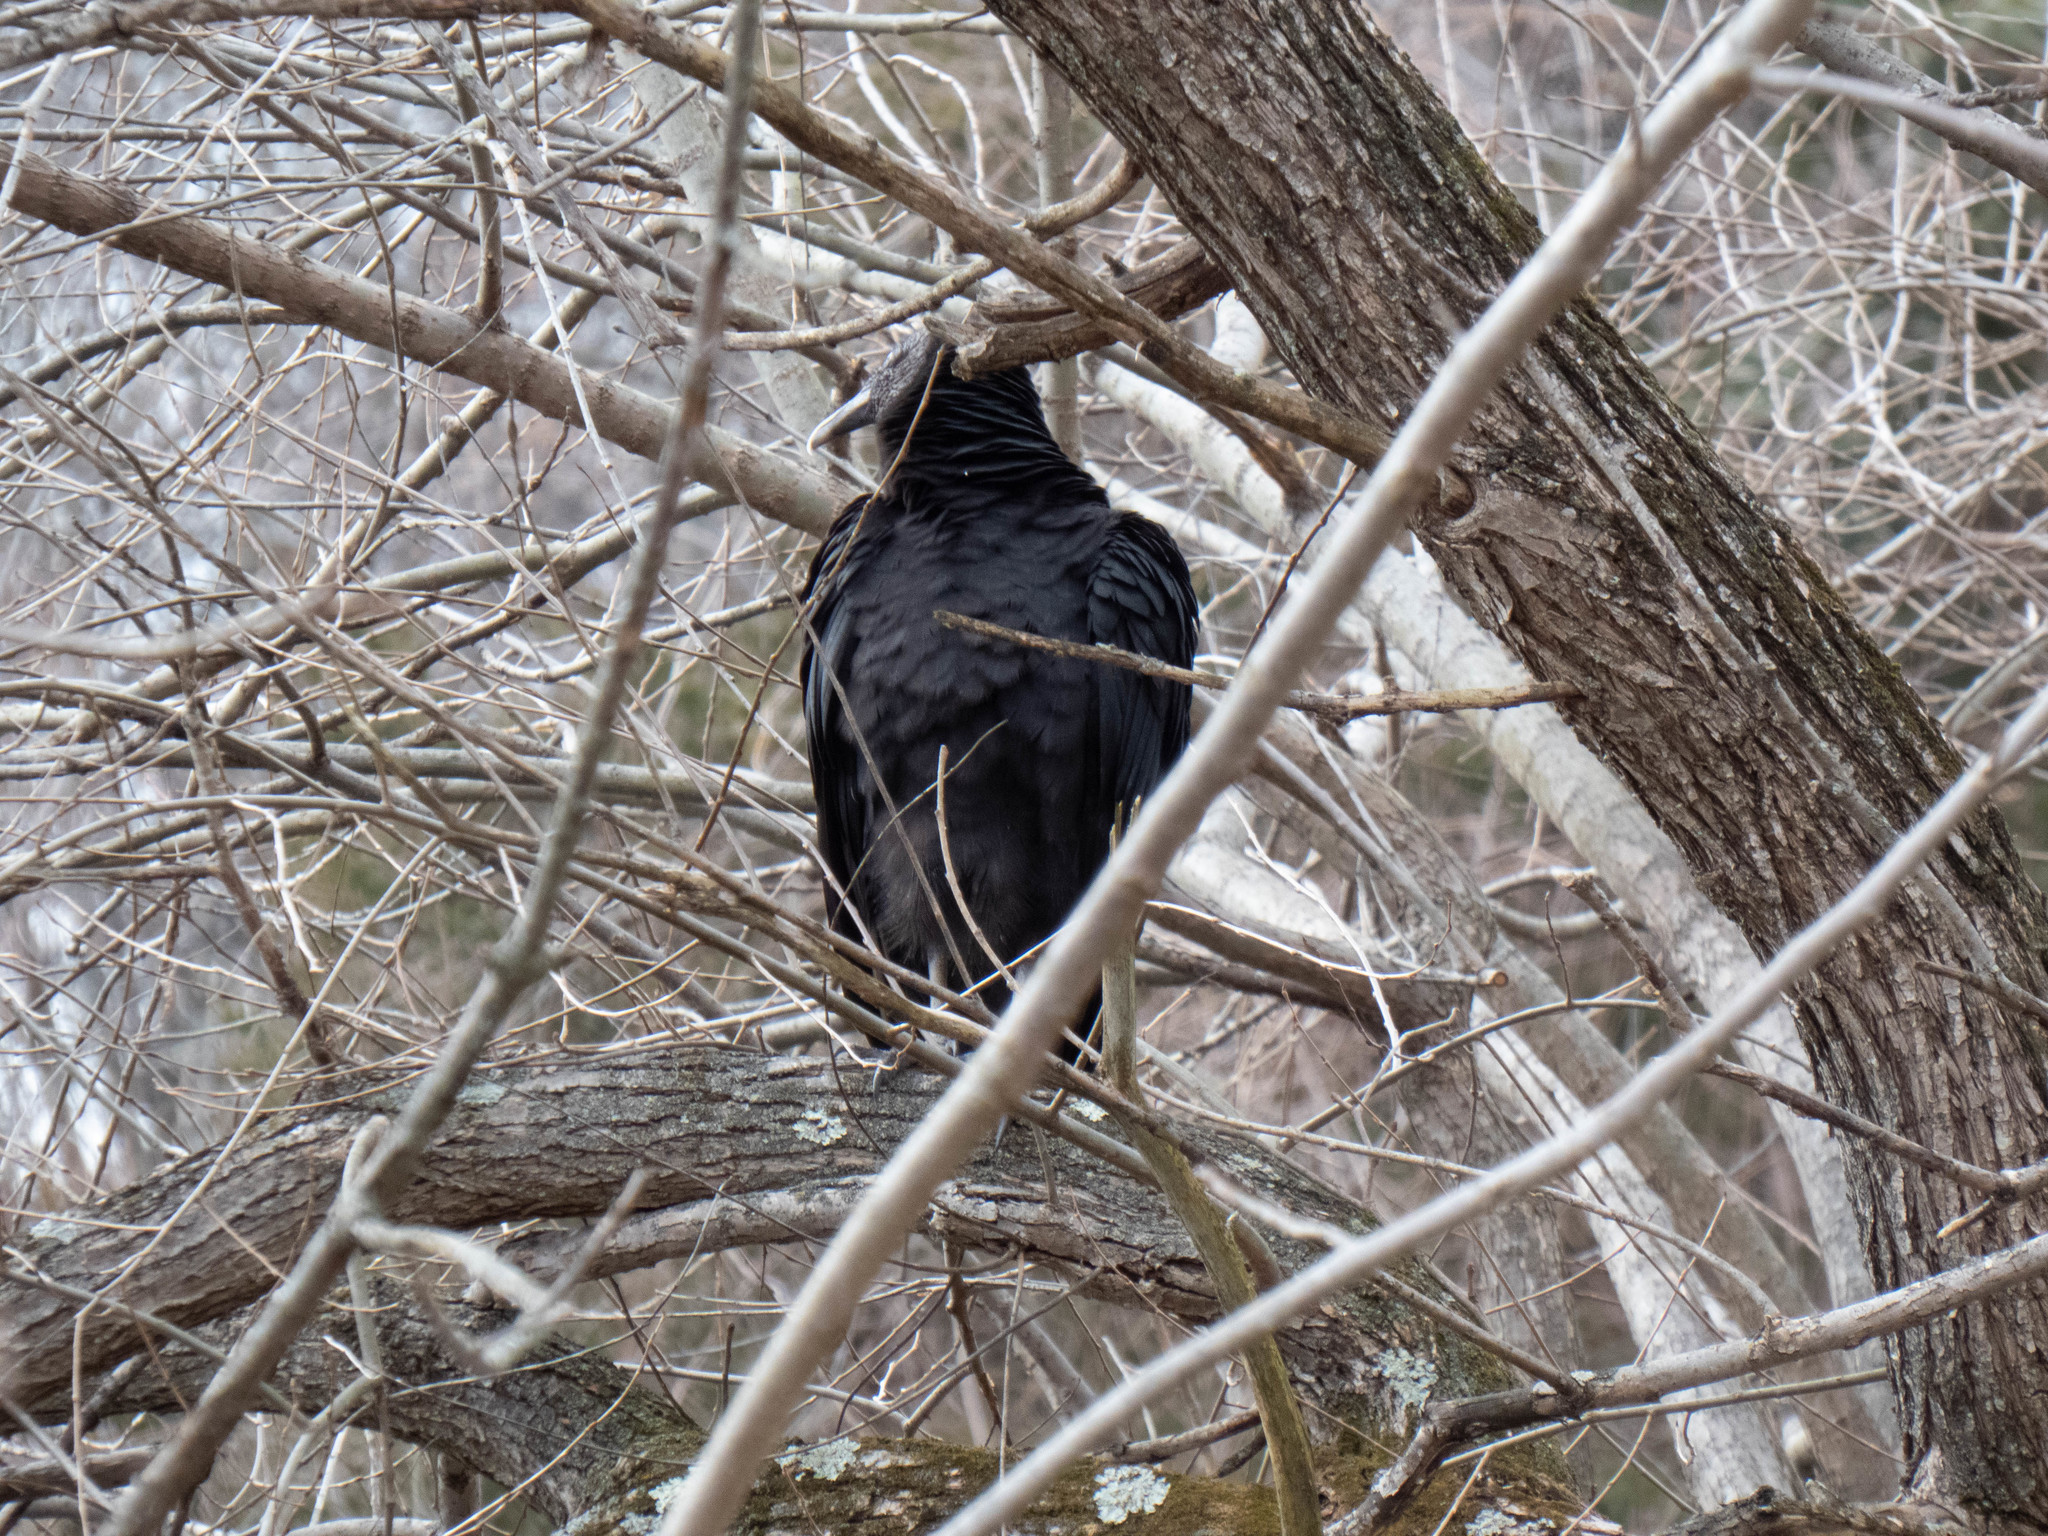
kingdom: Animalia
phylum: Chordata
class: Aves
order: Accipitriformes
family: Cathartidae
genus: Coragyps
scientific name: Coragyps atratus
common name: Black vulture
